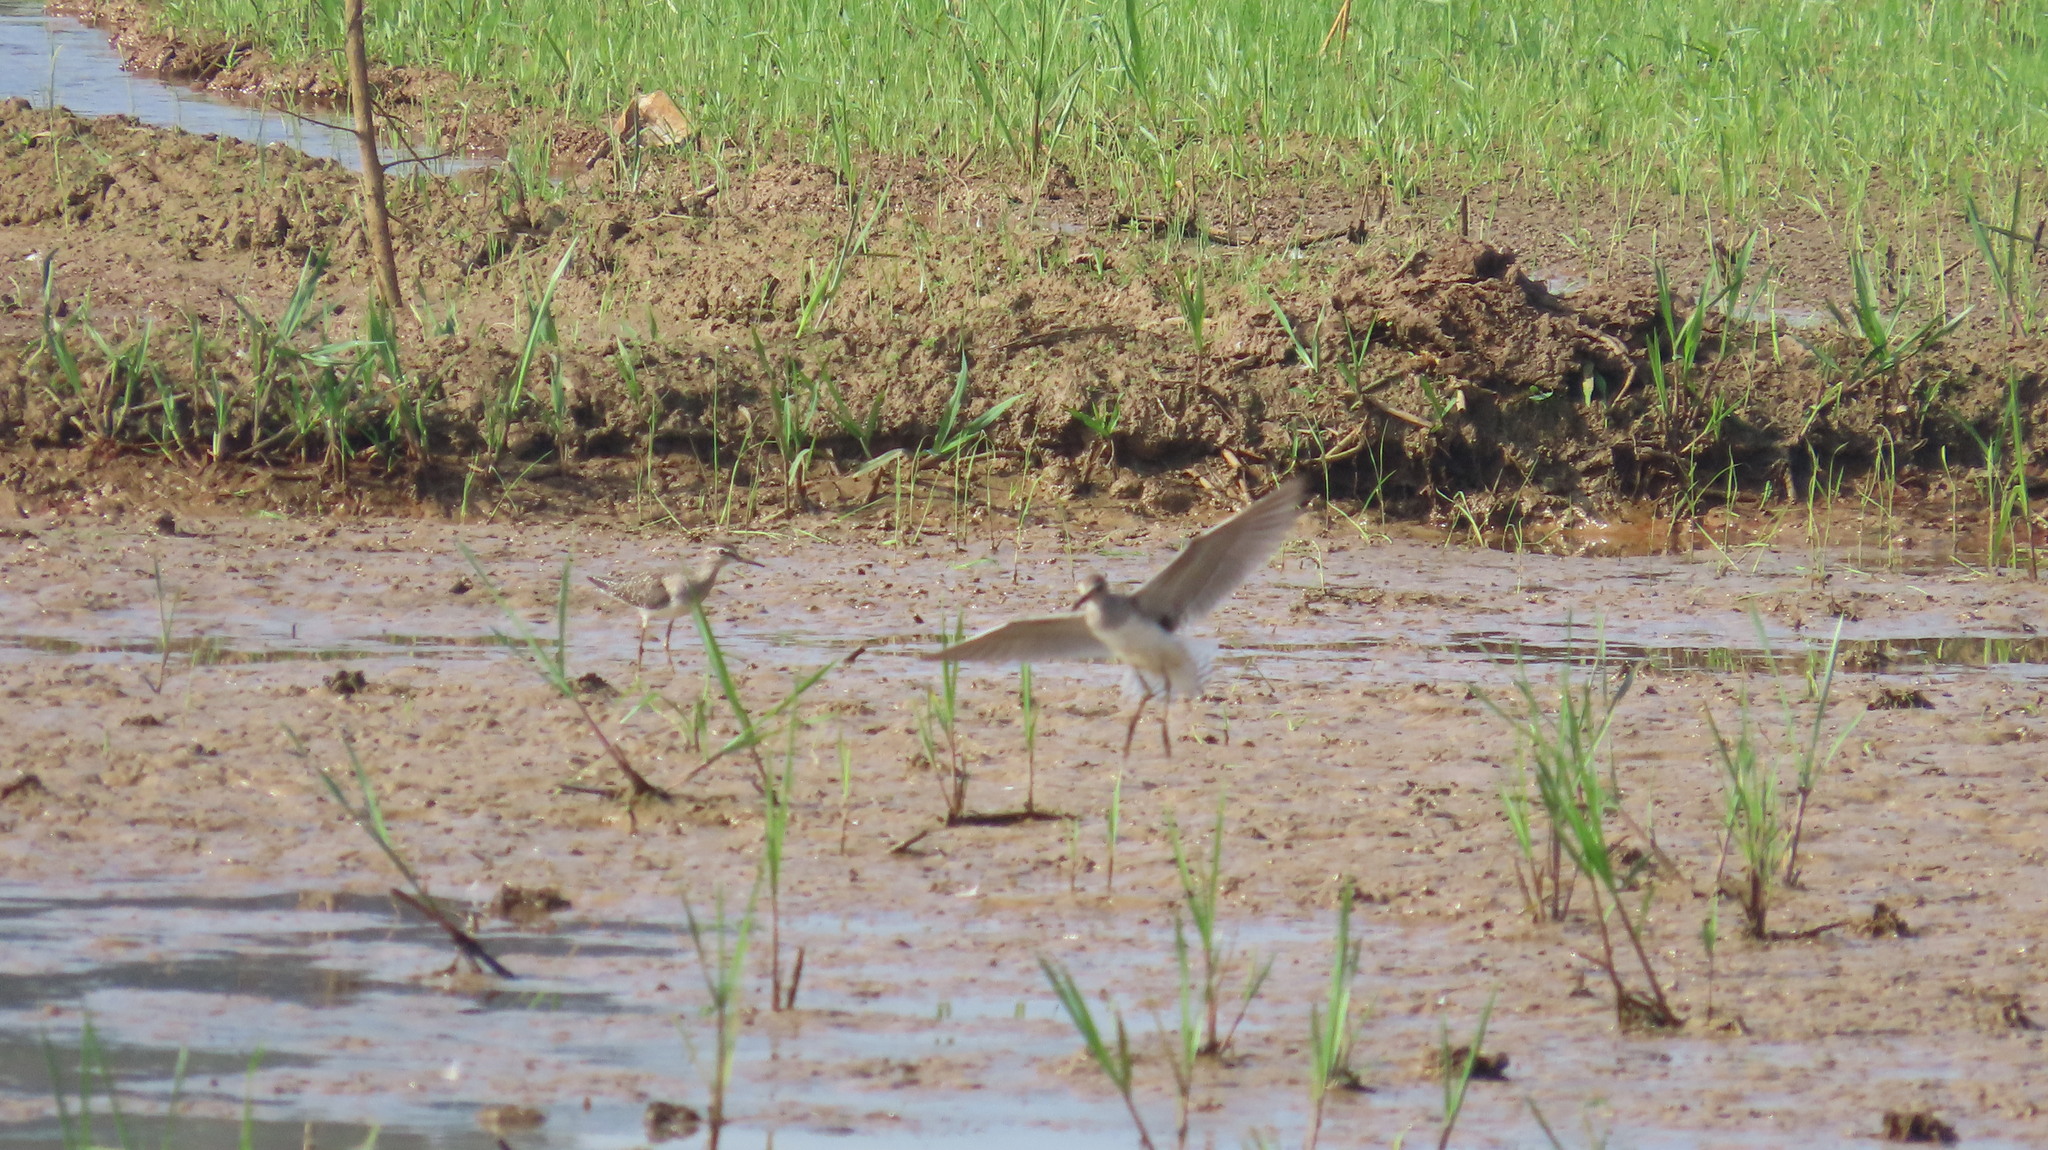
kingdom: Animalia
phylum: Chordata
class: Aves
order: Charadriiformes
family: Scolopacidae
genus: Tringa
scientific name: Tringa glareola
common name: Wood sandpiper
